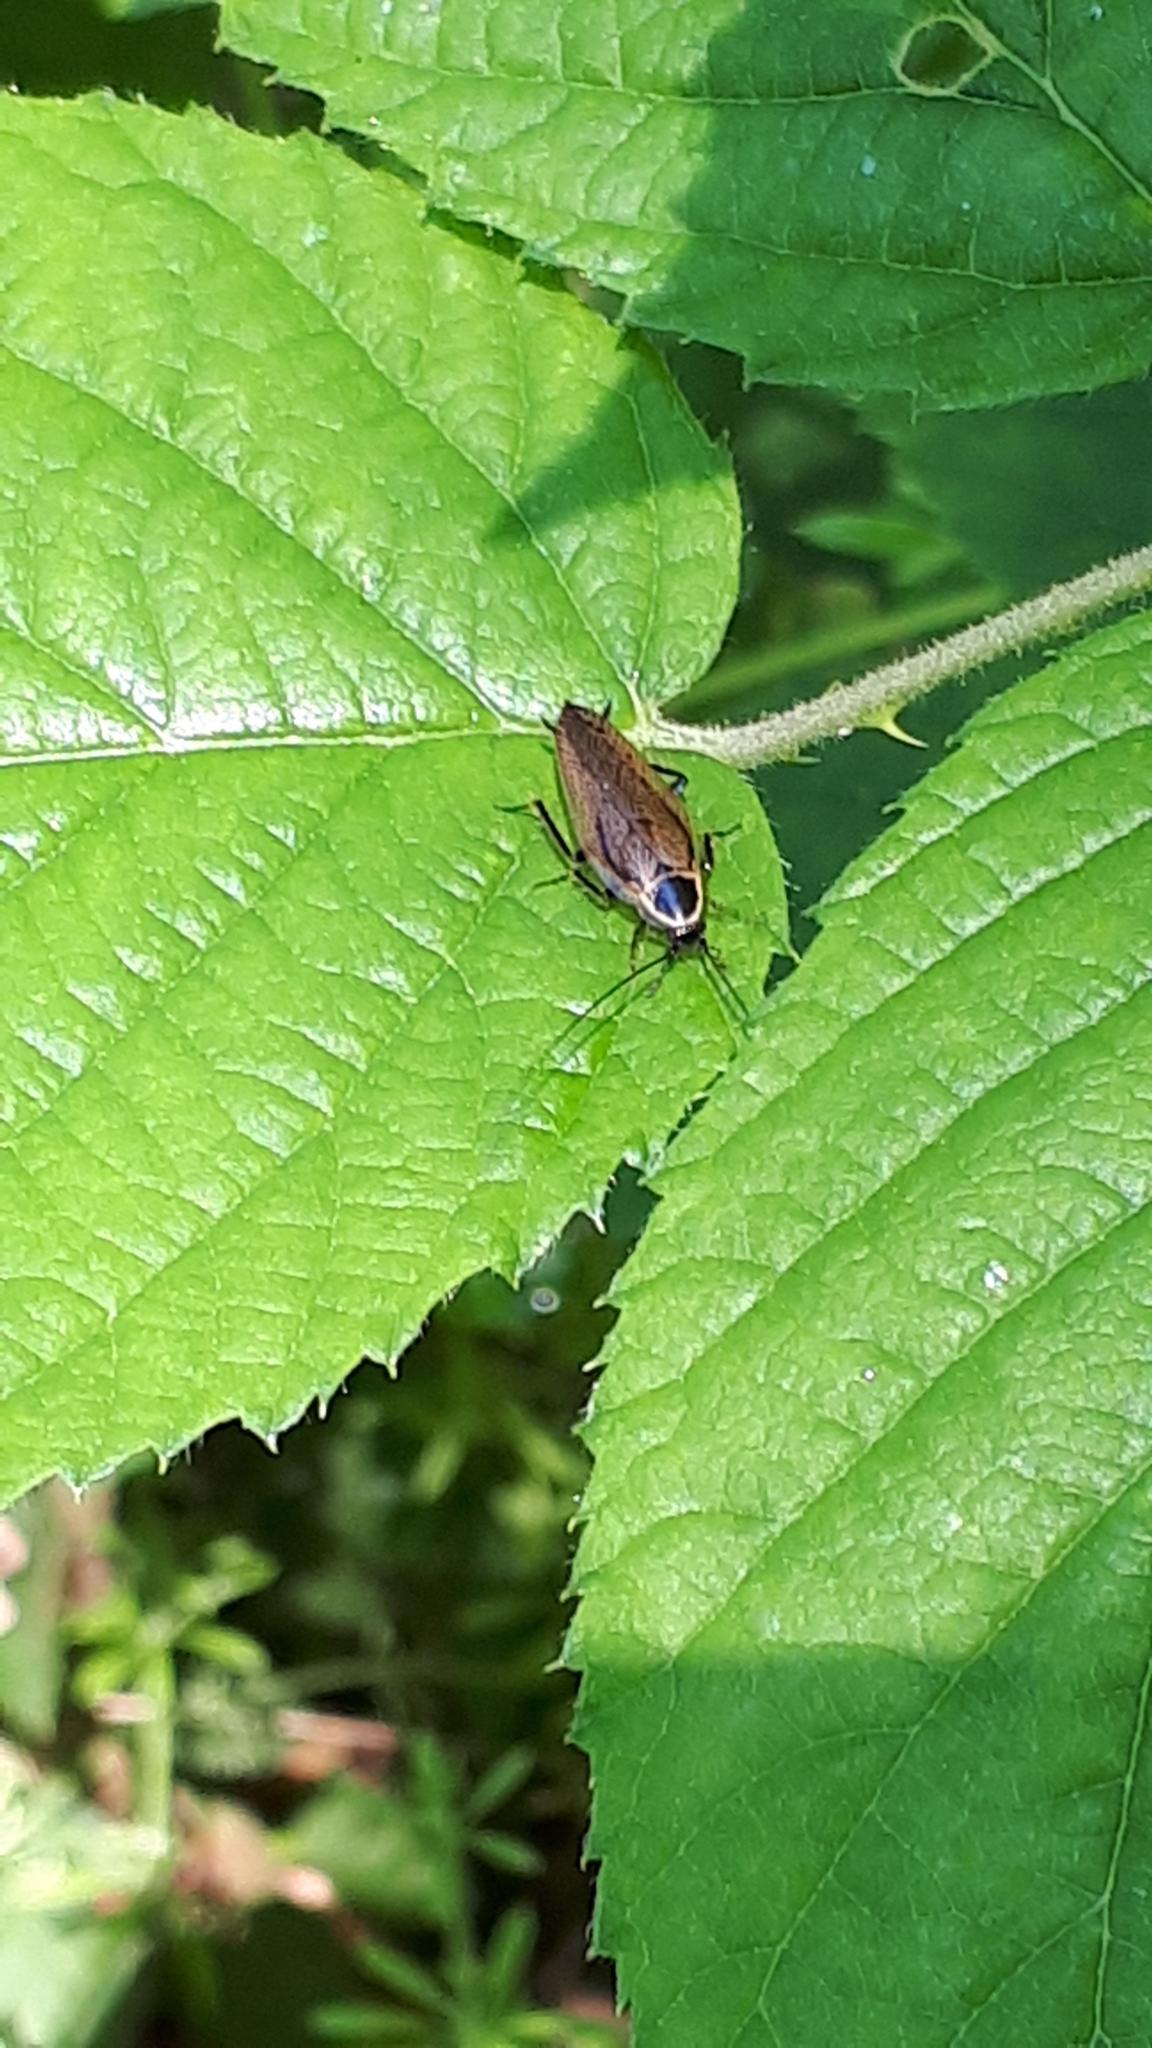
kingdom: Animalia
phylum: Arthropoda
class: Insecta
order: Blattodea
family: Ectobiidae
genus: Ectobius
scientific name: Ectobius sylvestris
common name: Forest cockroach
